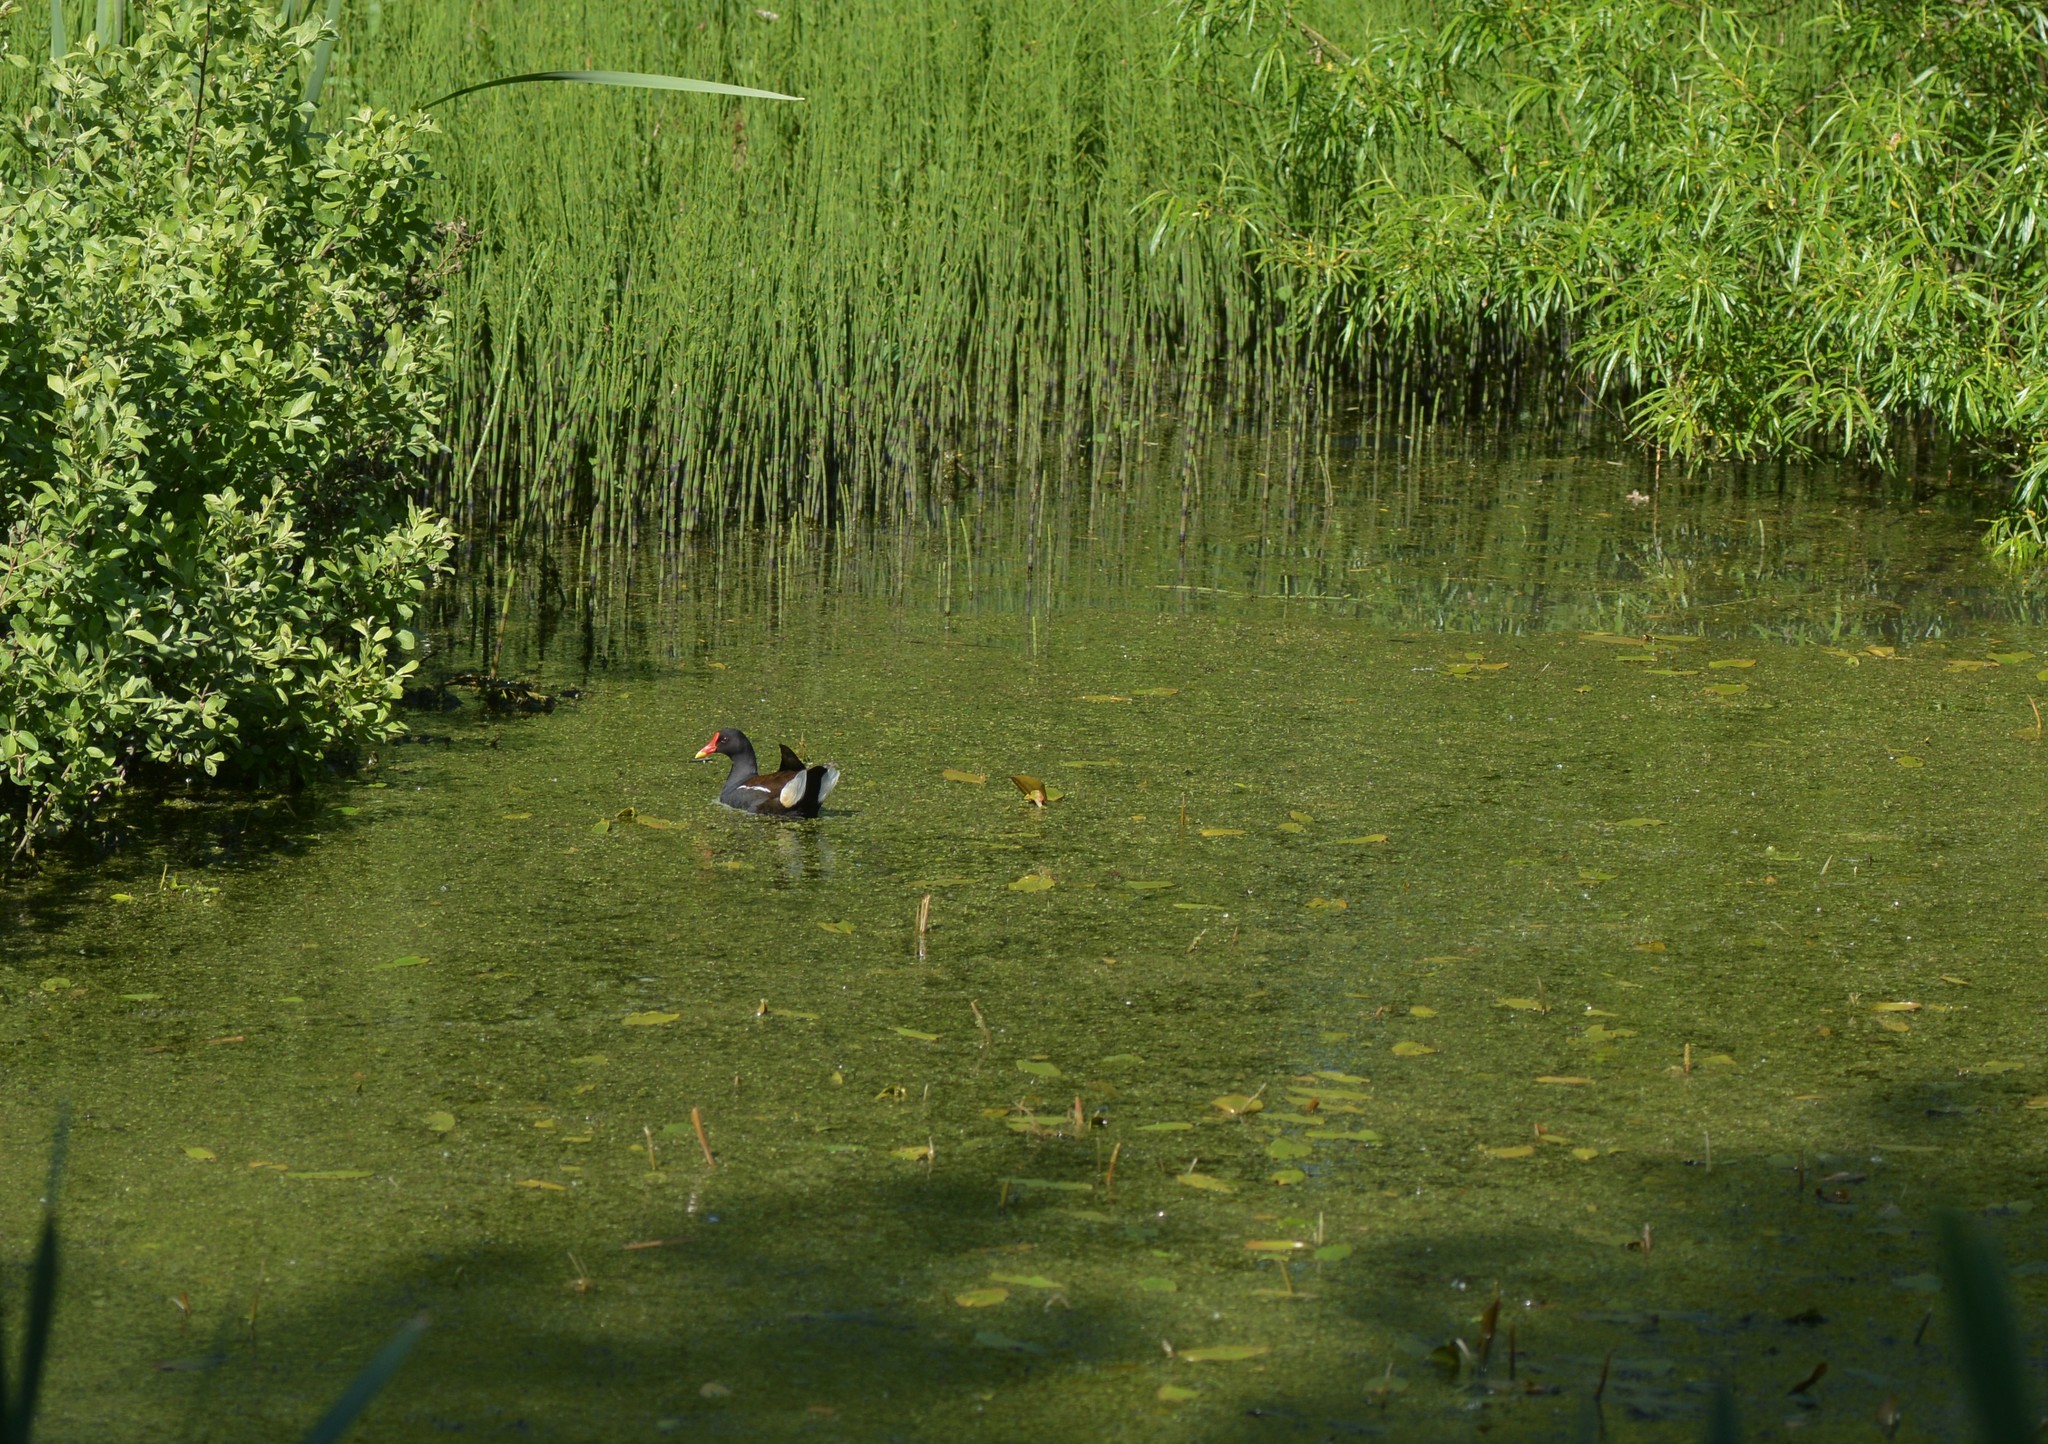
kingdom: Animalia
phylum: Chordata
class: Aves
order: Gruiformes
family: Rallidae
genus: Gallinula
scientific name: Gallinula chloropus
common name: Common moorhen
